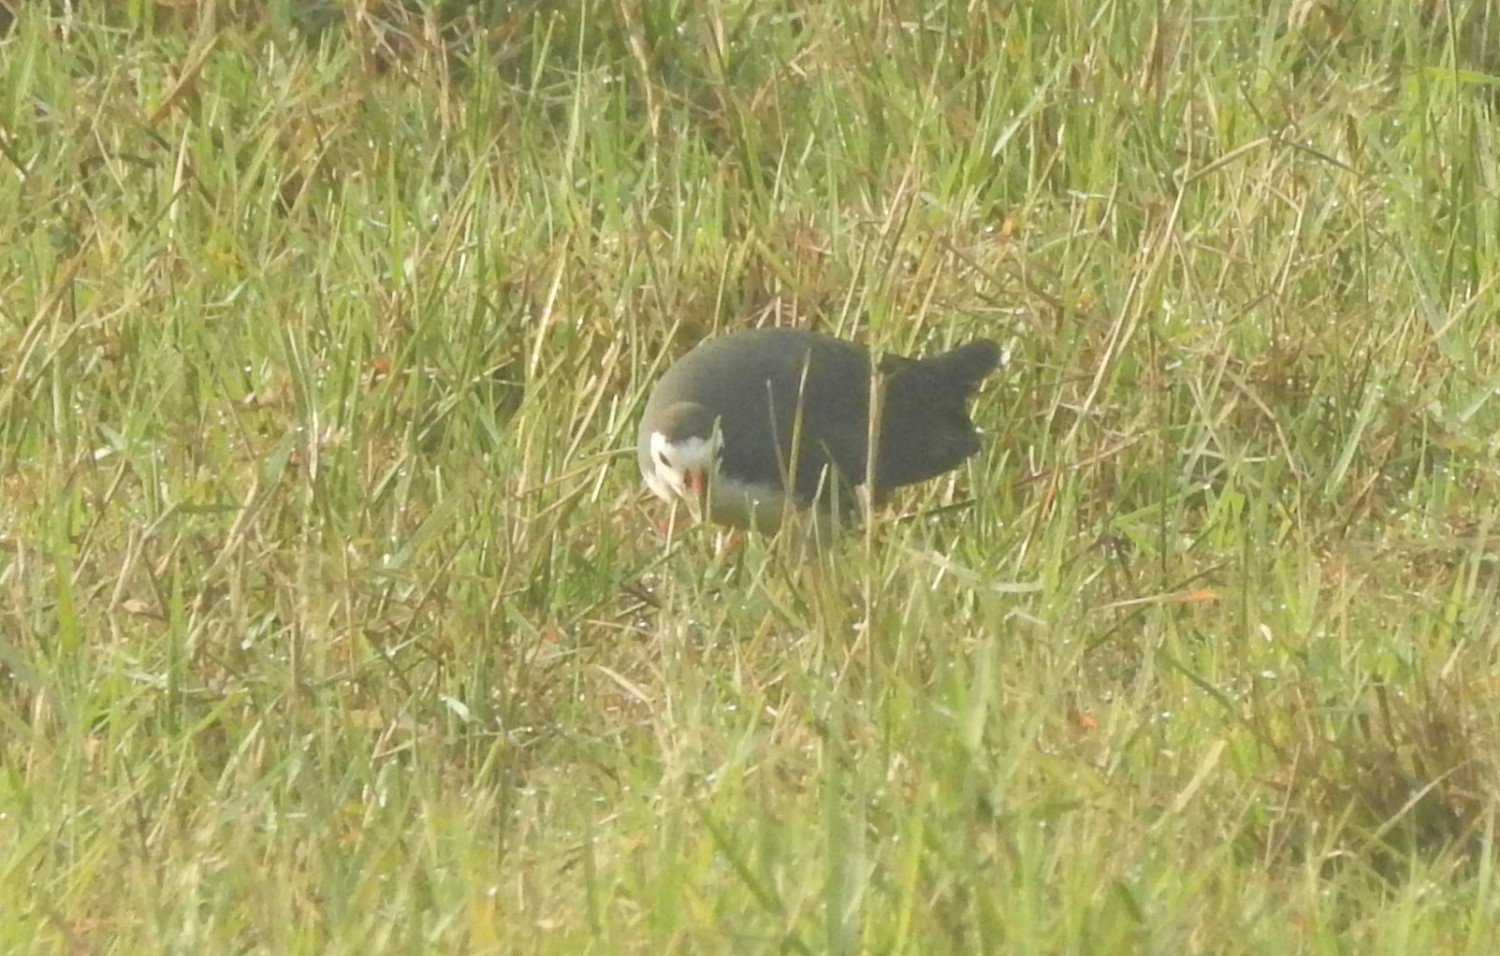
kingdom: Animalia
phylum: Chordata
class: Aves
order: Gruiformes
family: Rallidae
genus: Amaurornis
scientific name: Amaurornis phoenicurus
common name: White-breasted waterhen
